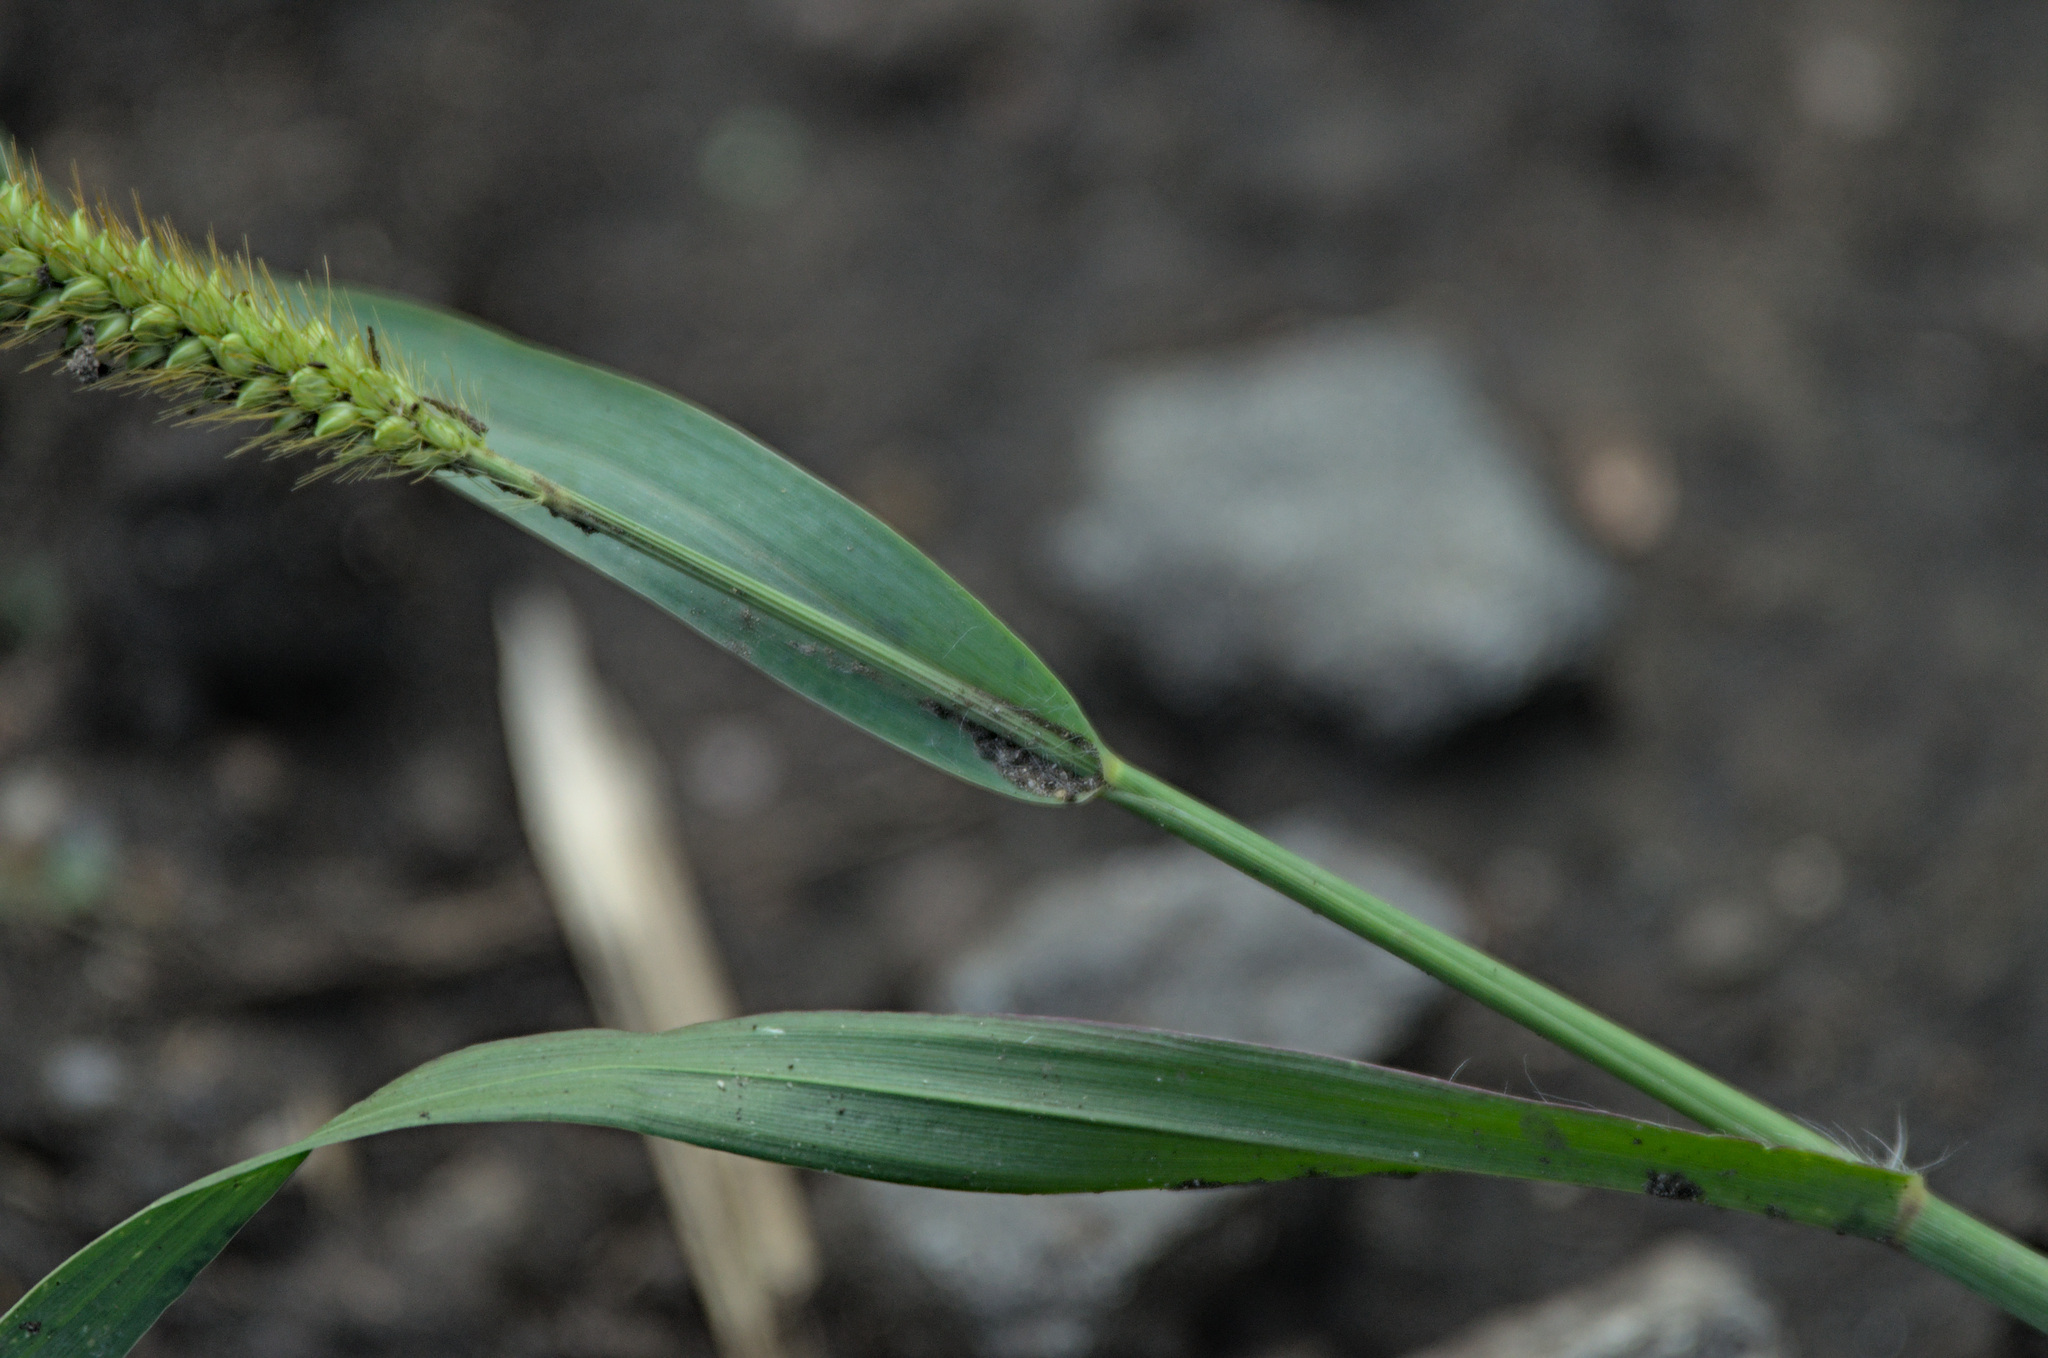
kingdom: Plantae
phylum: Tracheophyta
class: Liliopsida
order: Poales
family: Poaceae
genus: Setaria
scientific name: Setaria pumila
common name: Yellow bristle-grass
